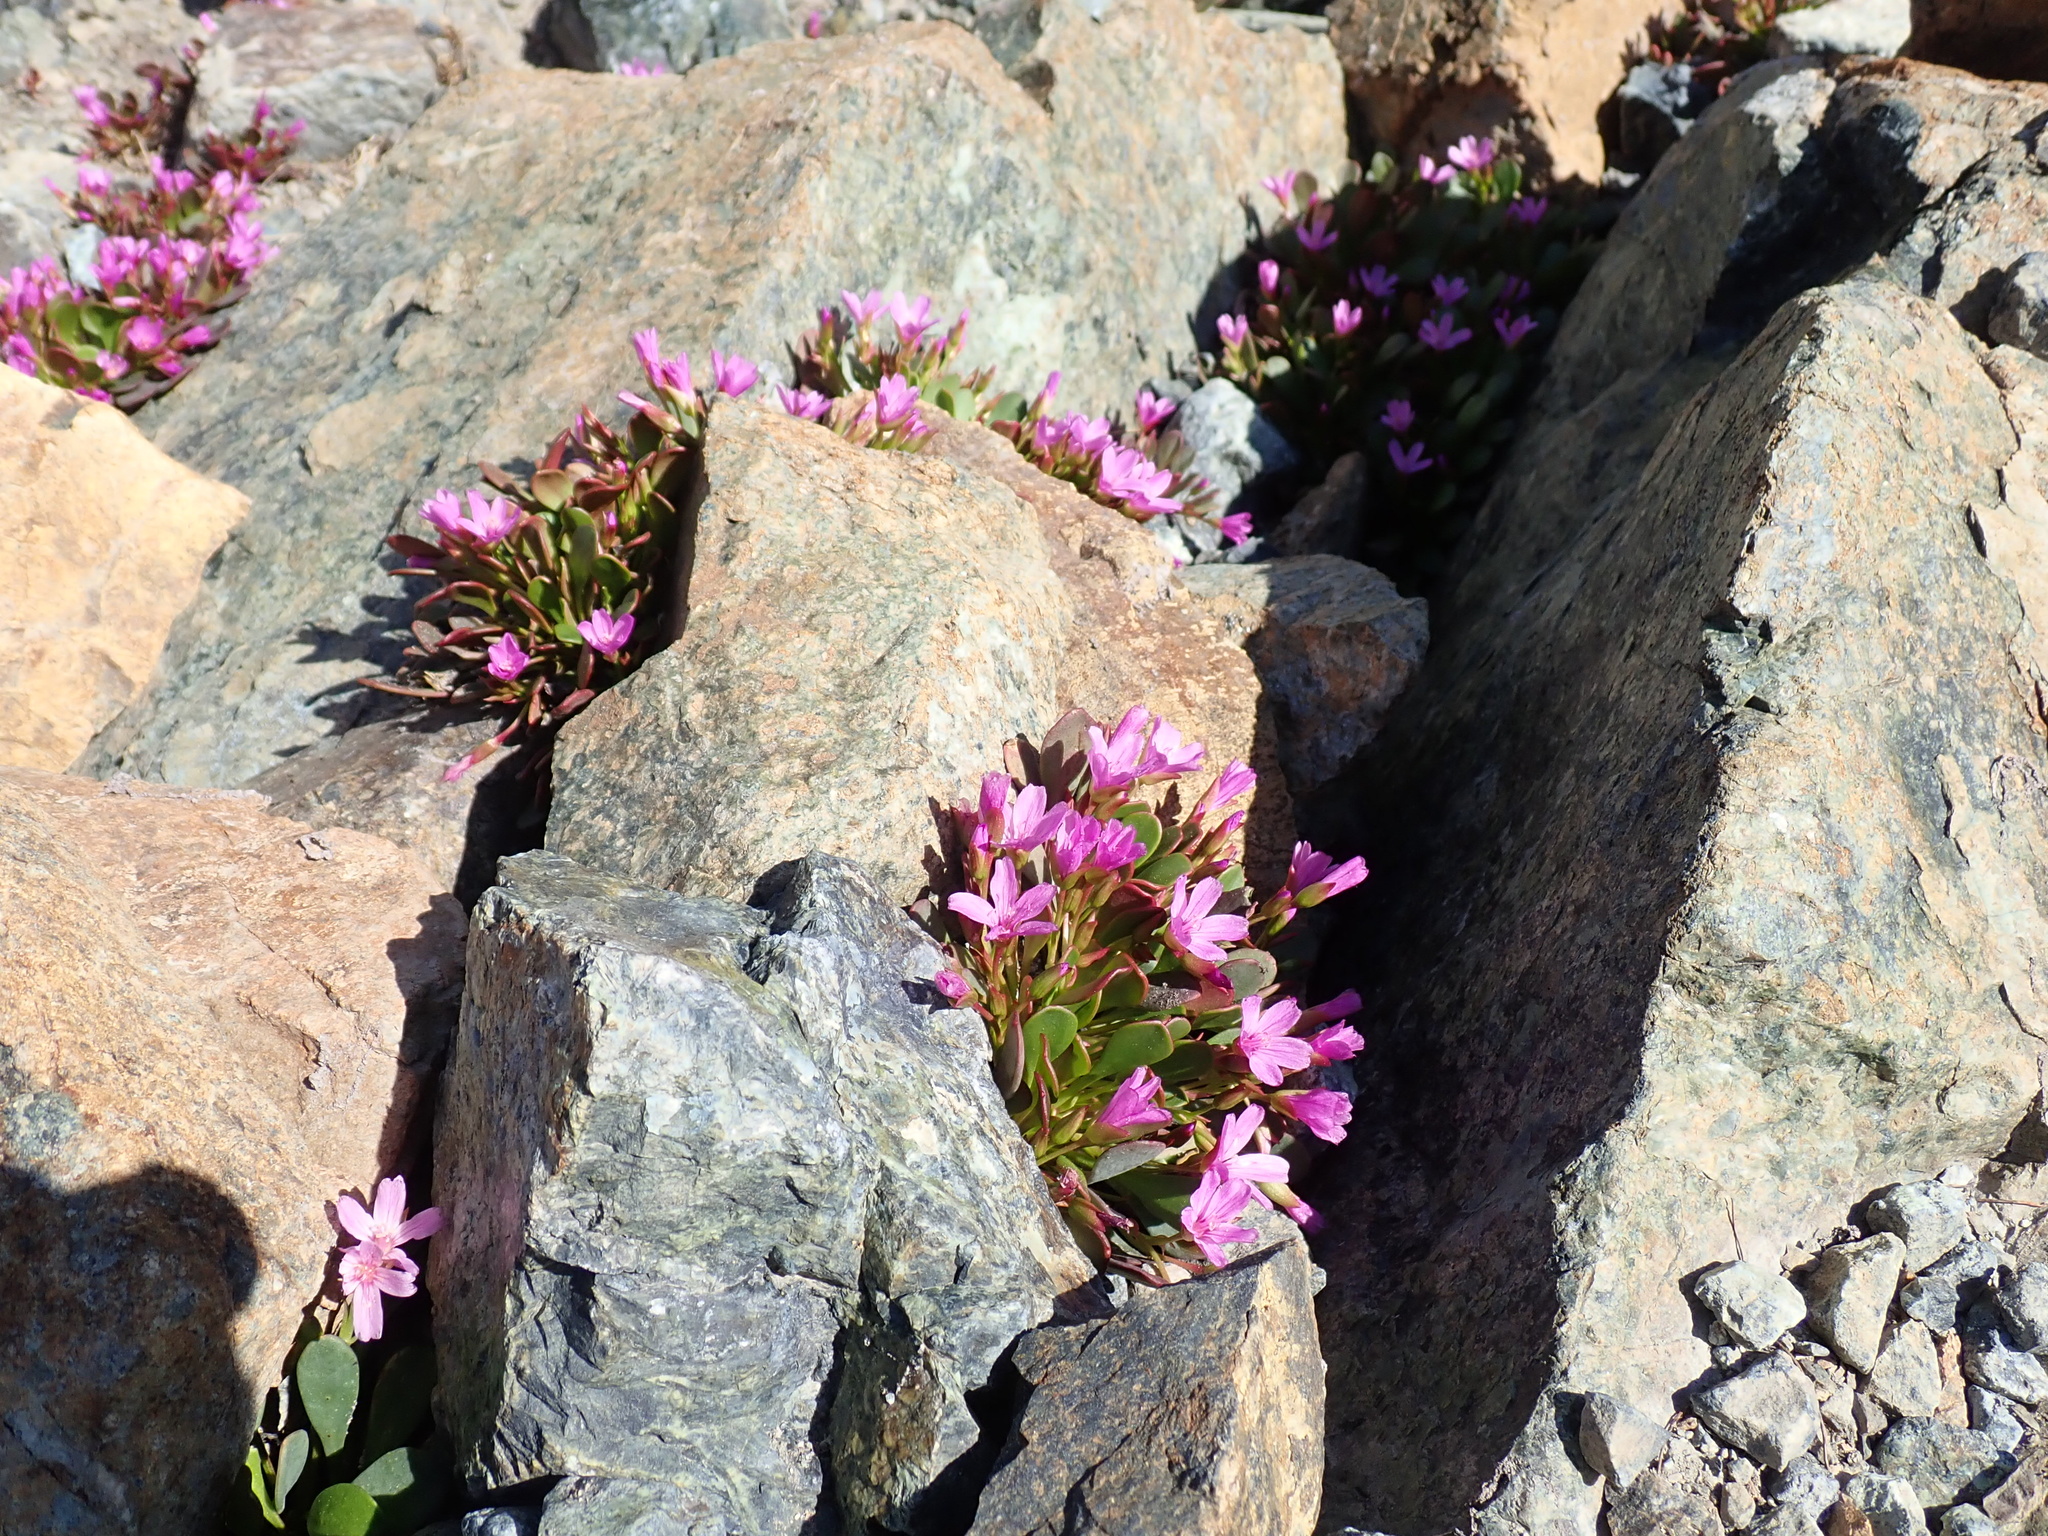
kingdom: Plantae
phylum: Tracheophyta
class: Magnoliopsida
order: Caryophyllales
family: Montiaceae
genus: Claytonia
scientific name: Claytonia megarhiza
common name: Alpine spring beauty
